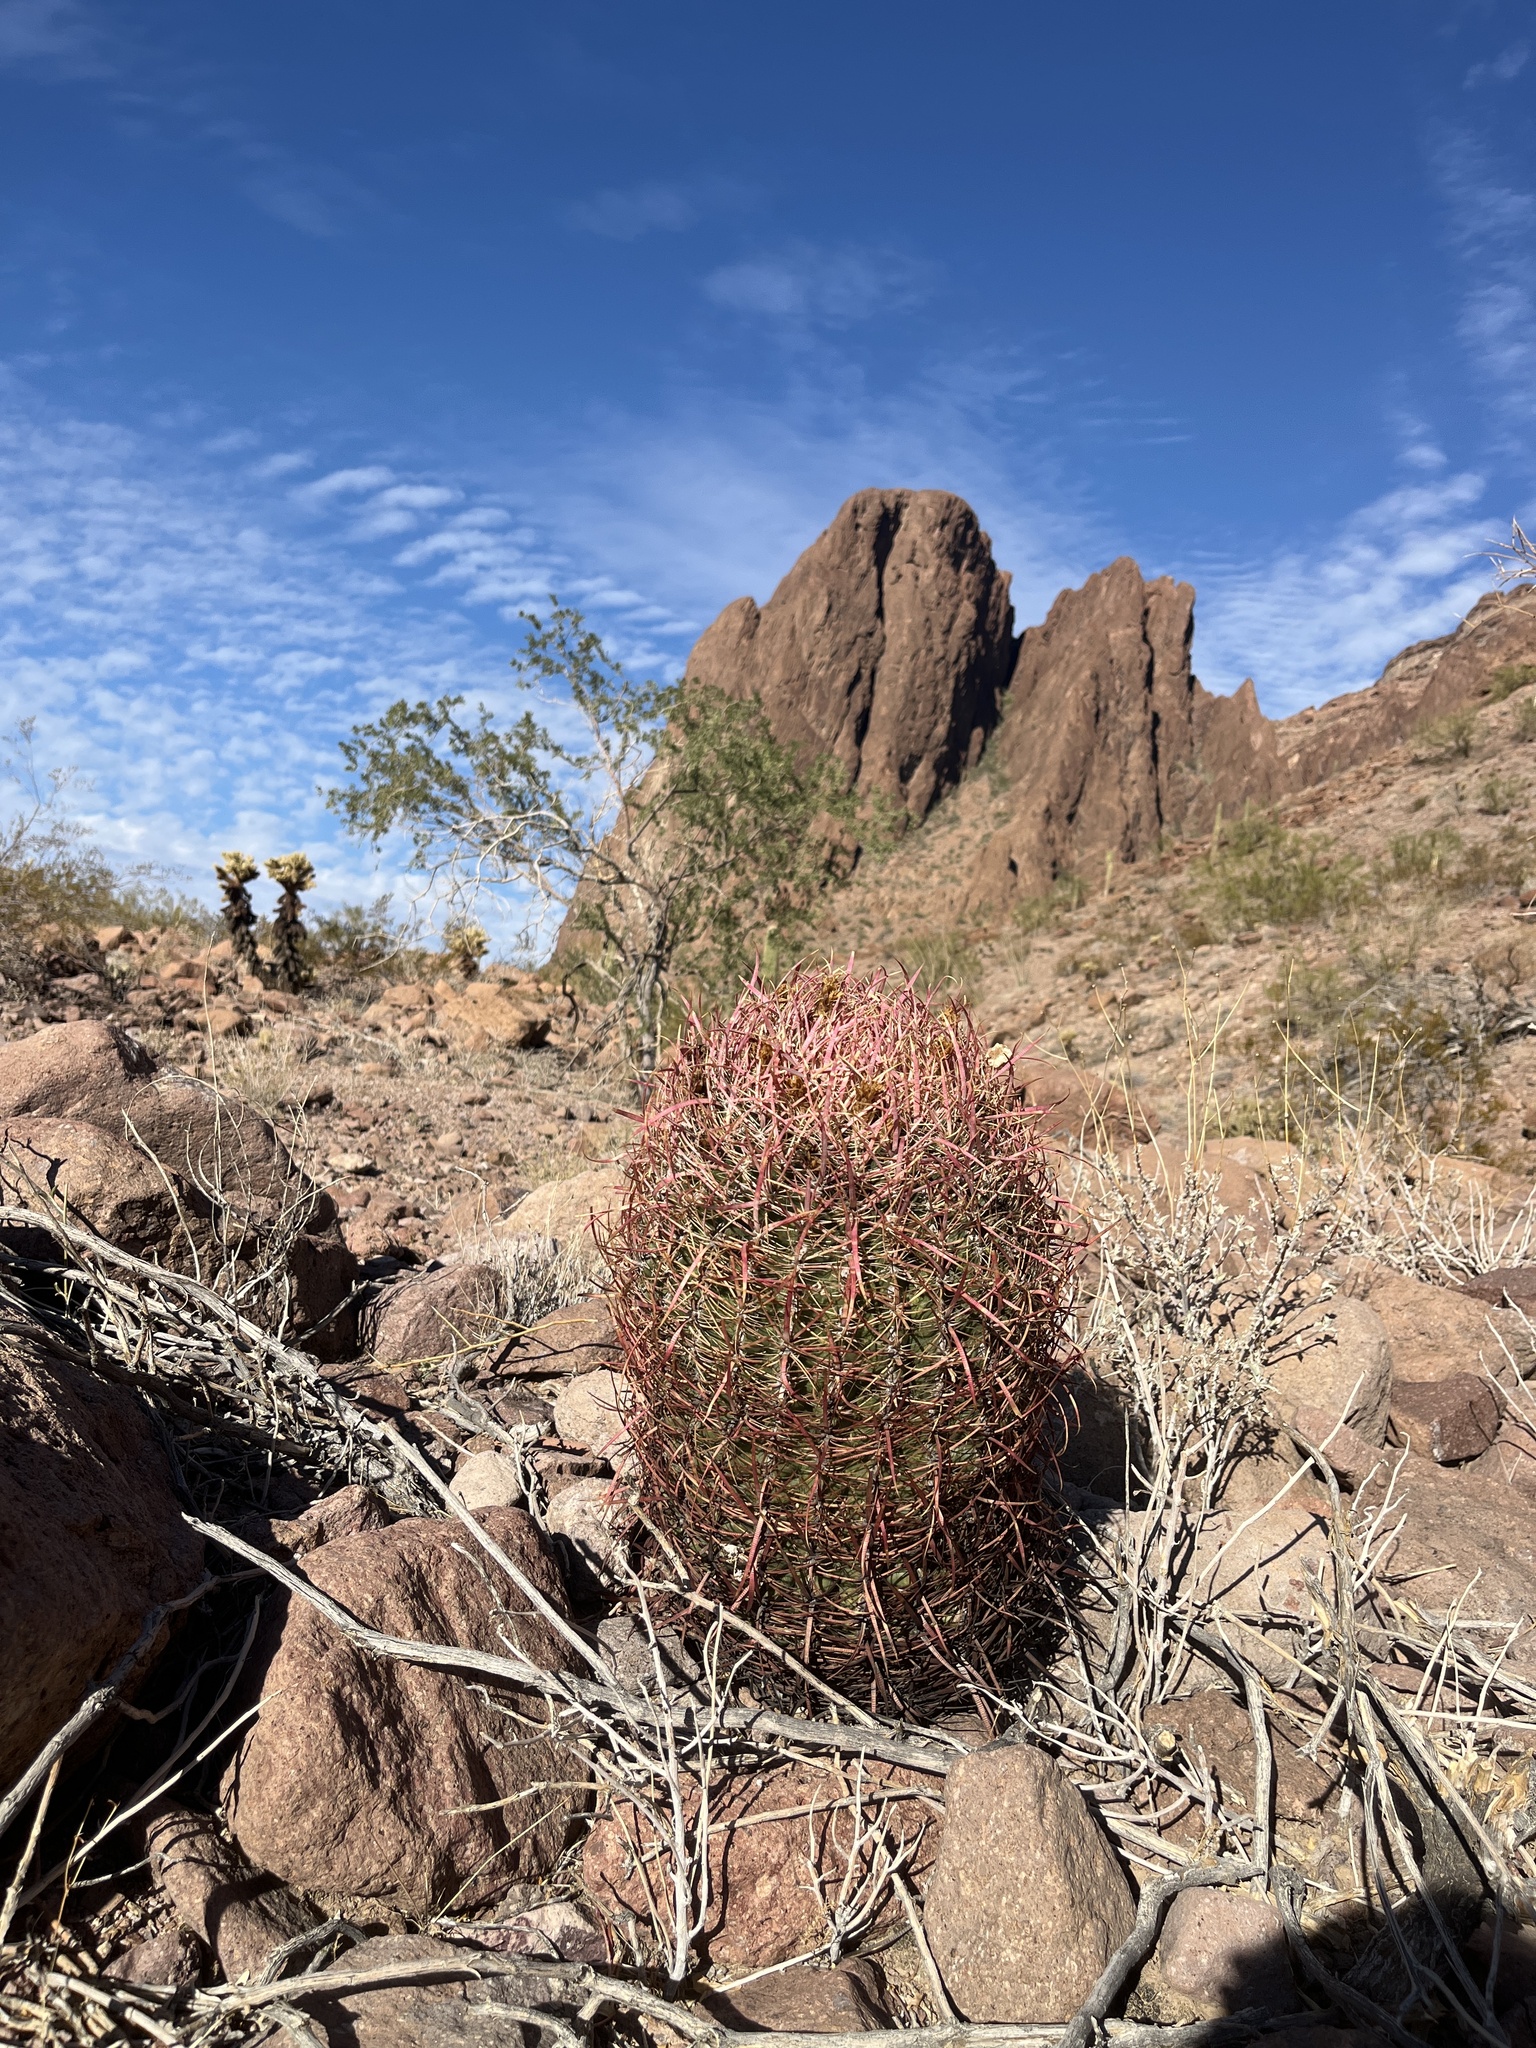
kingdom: Plantae
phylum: Tracheophyta
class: Magnoliopsida
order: Caryophyllales
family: Cactaceae
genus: Ferocactus
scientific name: Ferocactus cylindraceus
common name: California barrel cactus
